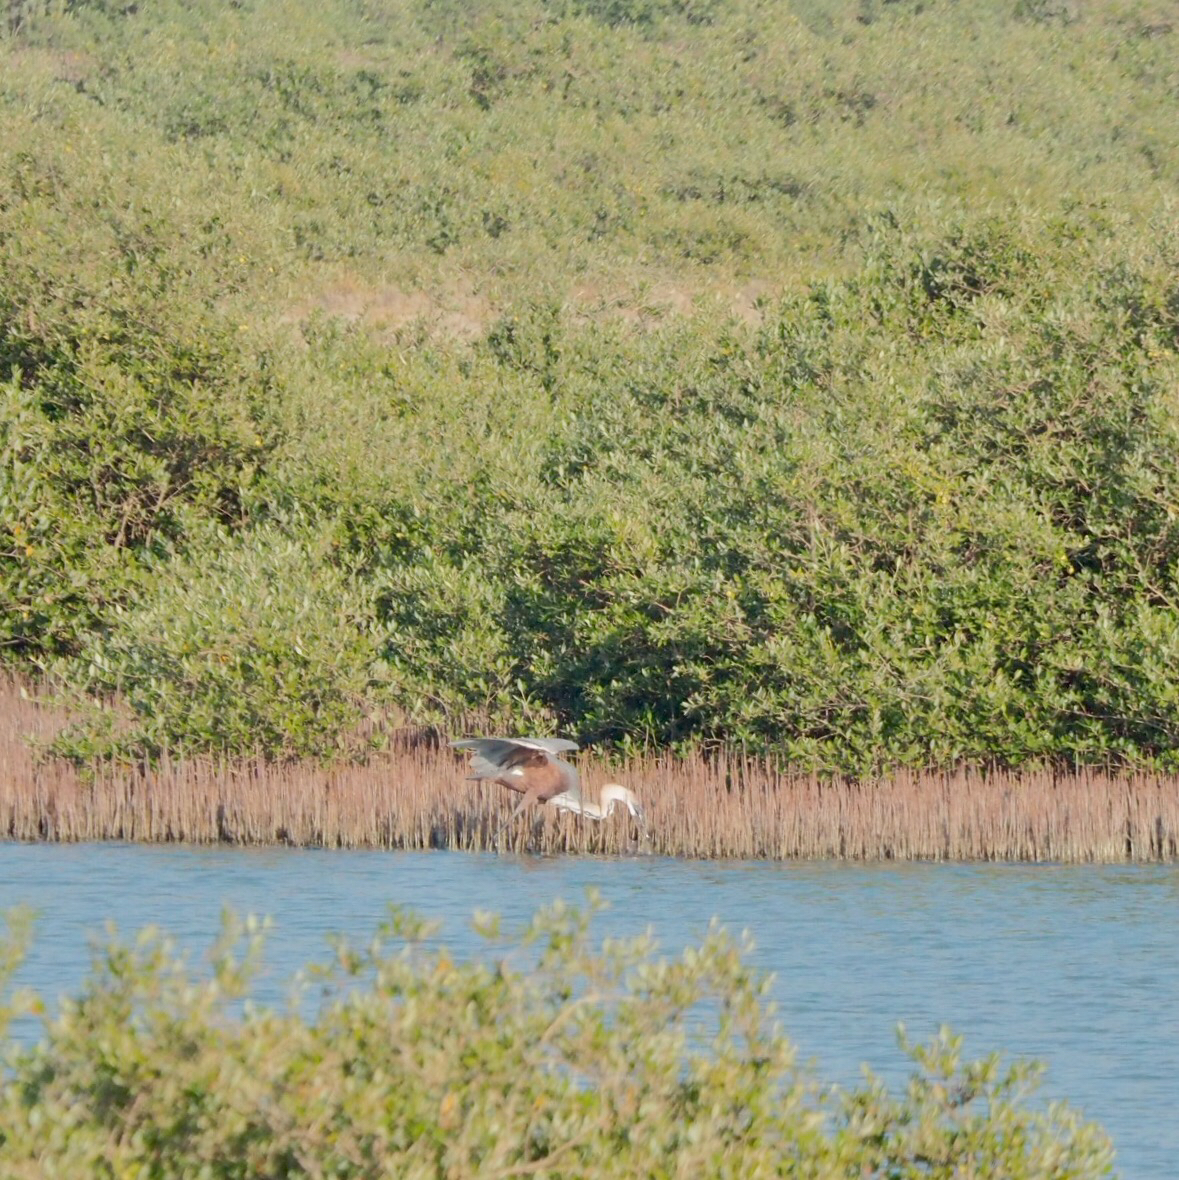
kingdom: Animalia
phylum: Chordata
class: Aves
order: Pelecaniformes
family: Ardeidae
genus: Ardea
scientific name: Ardea goliath
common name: Goliath heron
